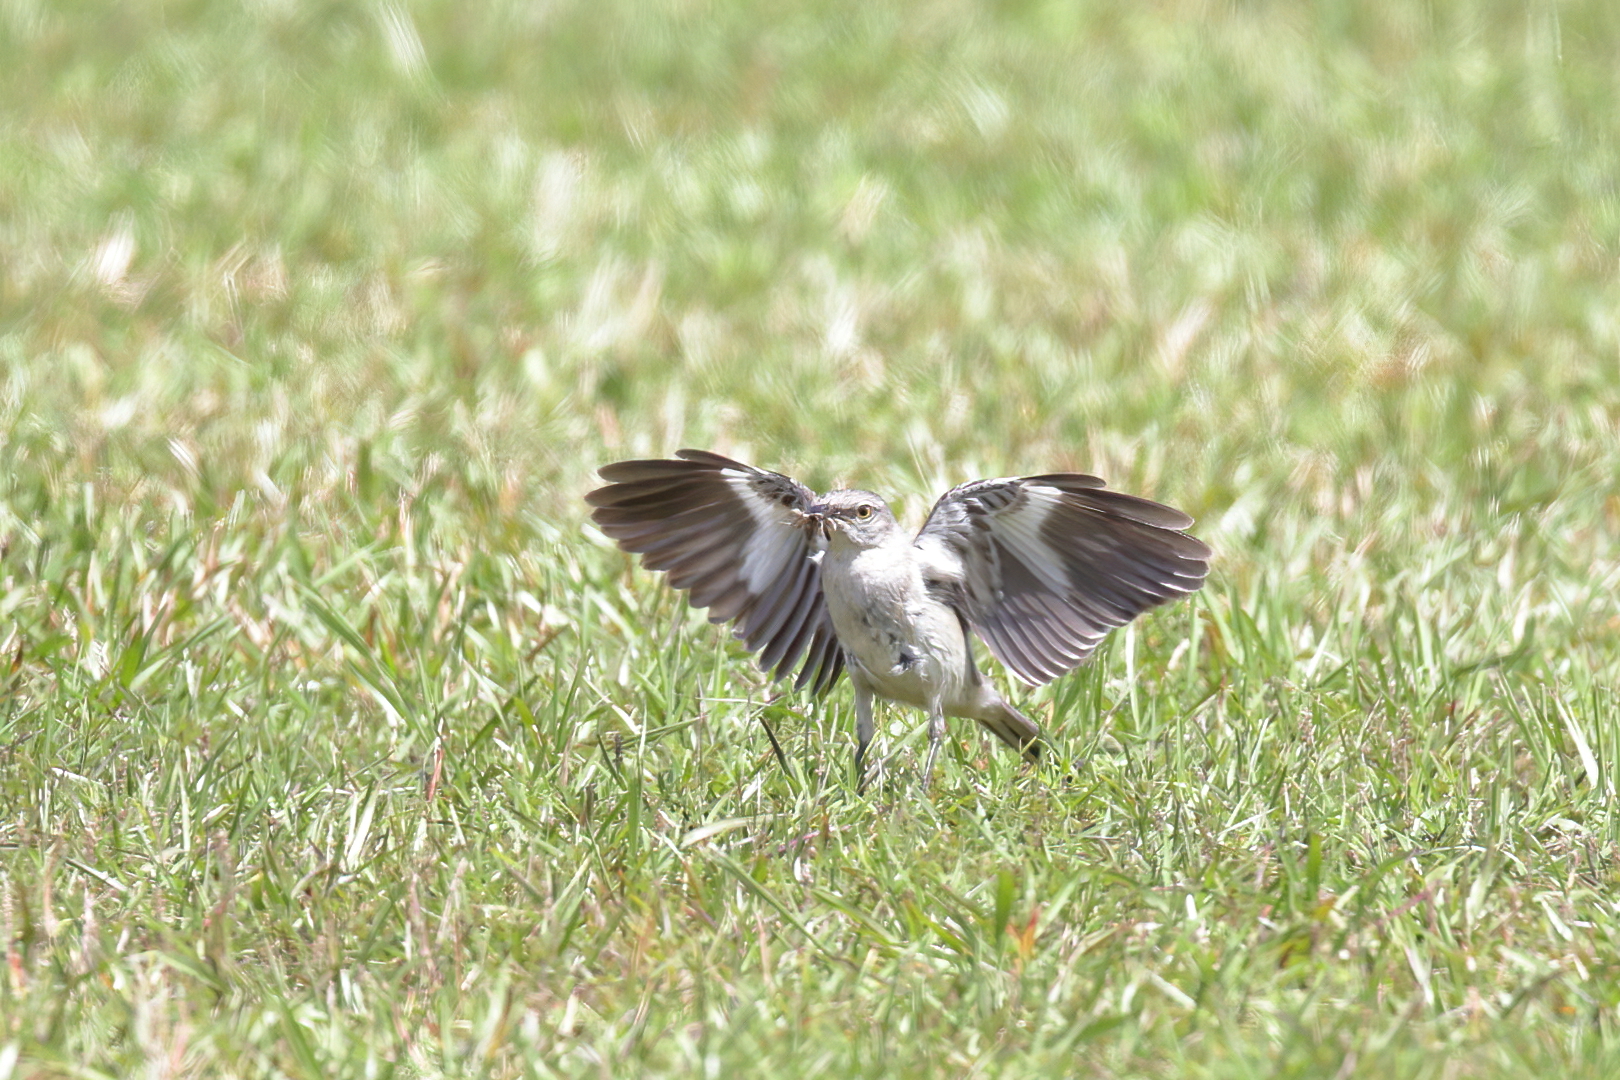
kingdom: Animalia
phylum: Chordata
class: Aves
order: Passeriformes
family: Mimidae
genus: Mimus
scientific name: Mimus polyglottos
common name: Northern mockingbird
